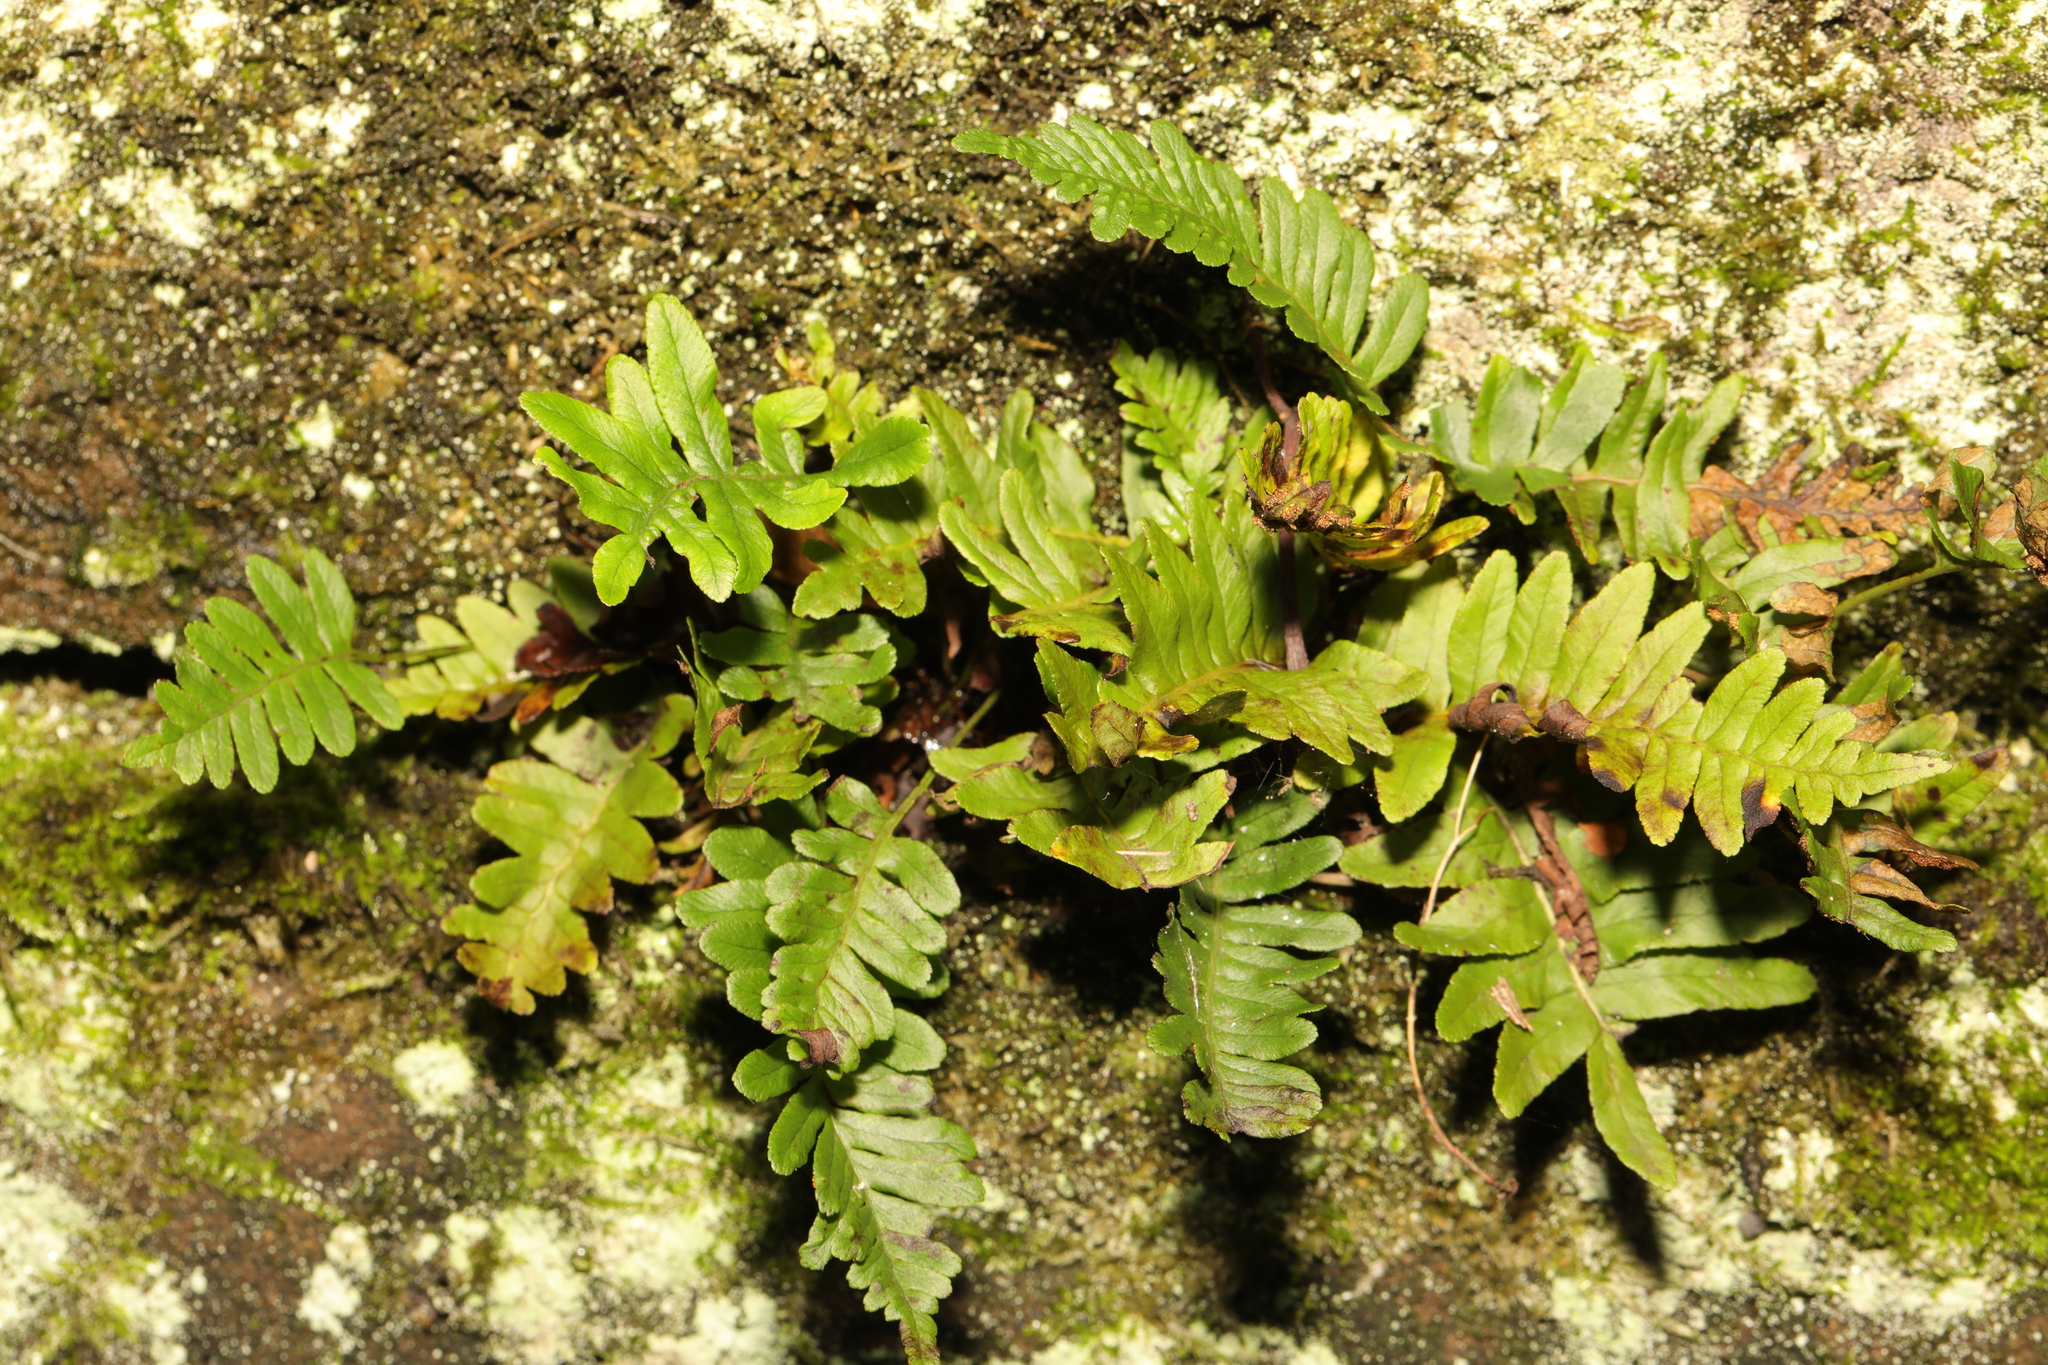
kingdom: Plantae
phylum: Tracheophyta
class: Polypodiopsida
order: Polypodiales
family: Polypodiaceae
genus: Polypodium
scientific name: Polypodium
